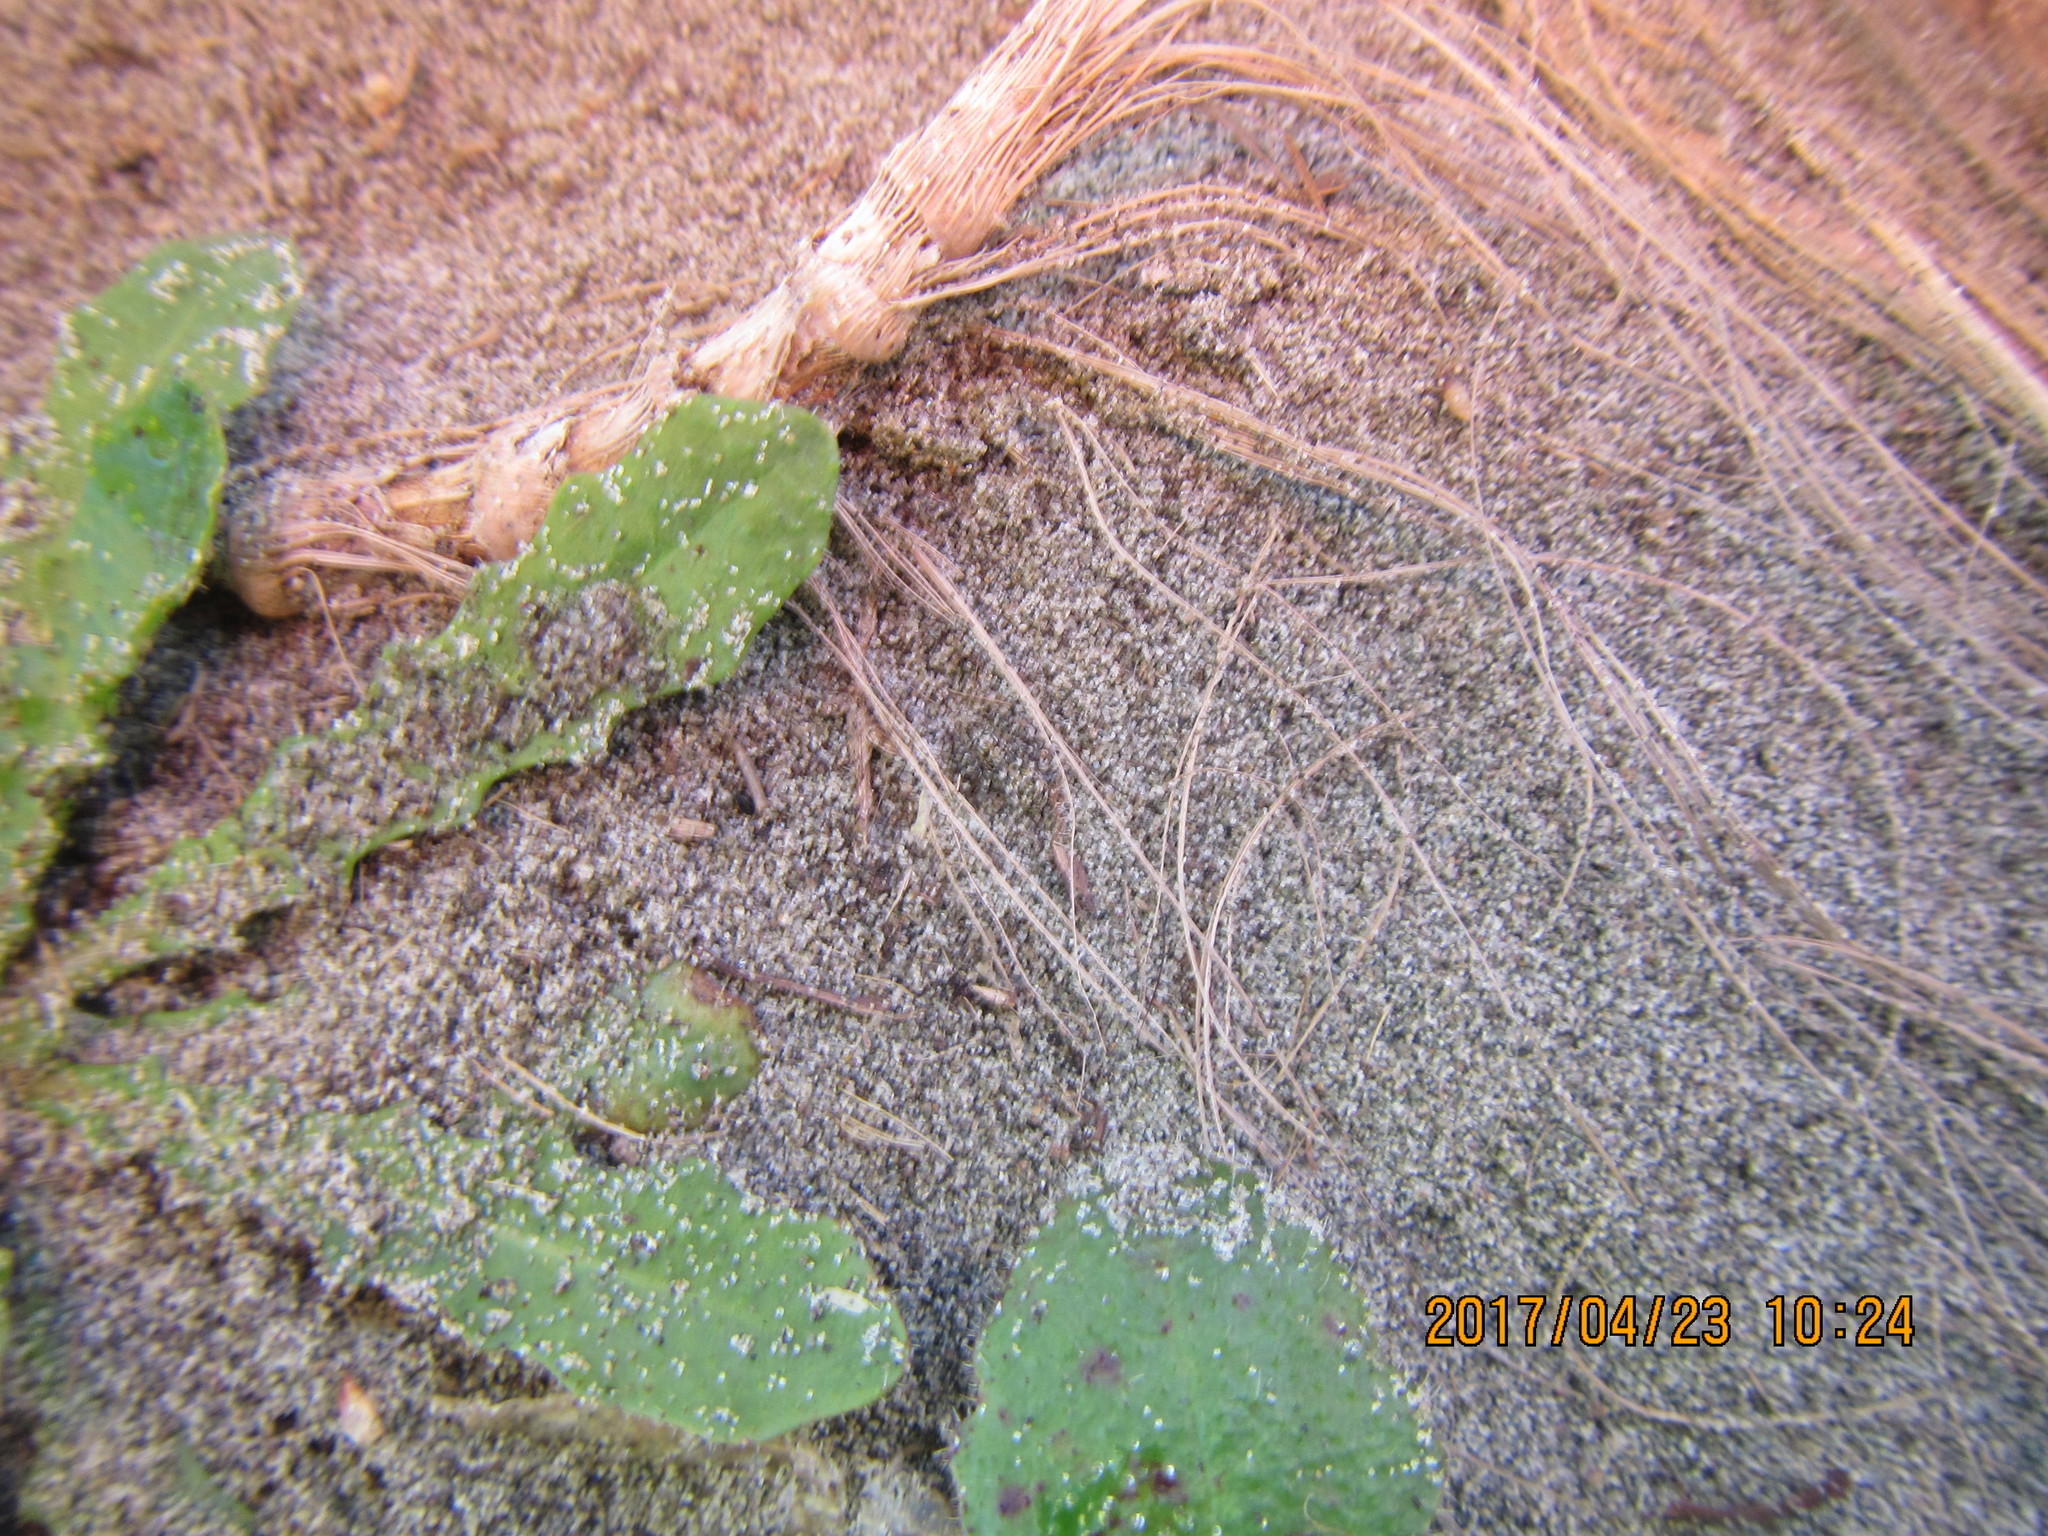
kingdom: Animalia
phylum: Arthropoda
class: Arachnida
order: Araneae
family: Lycosidae
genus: Anoteropsis
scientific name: Anoteropsis litoralis
